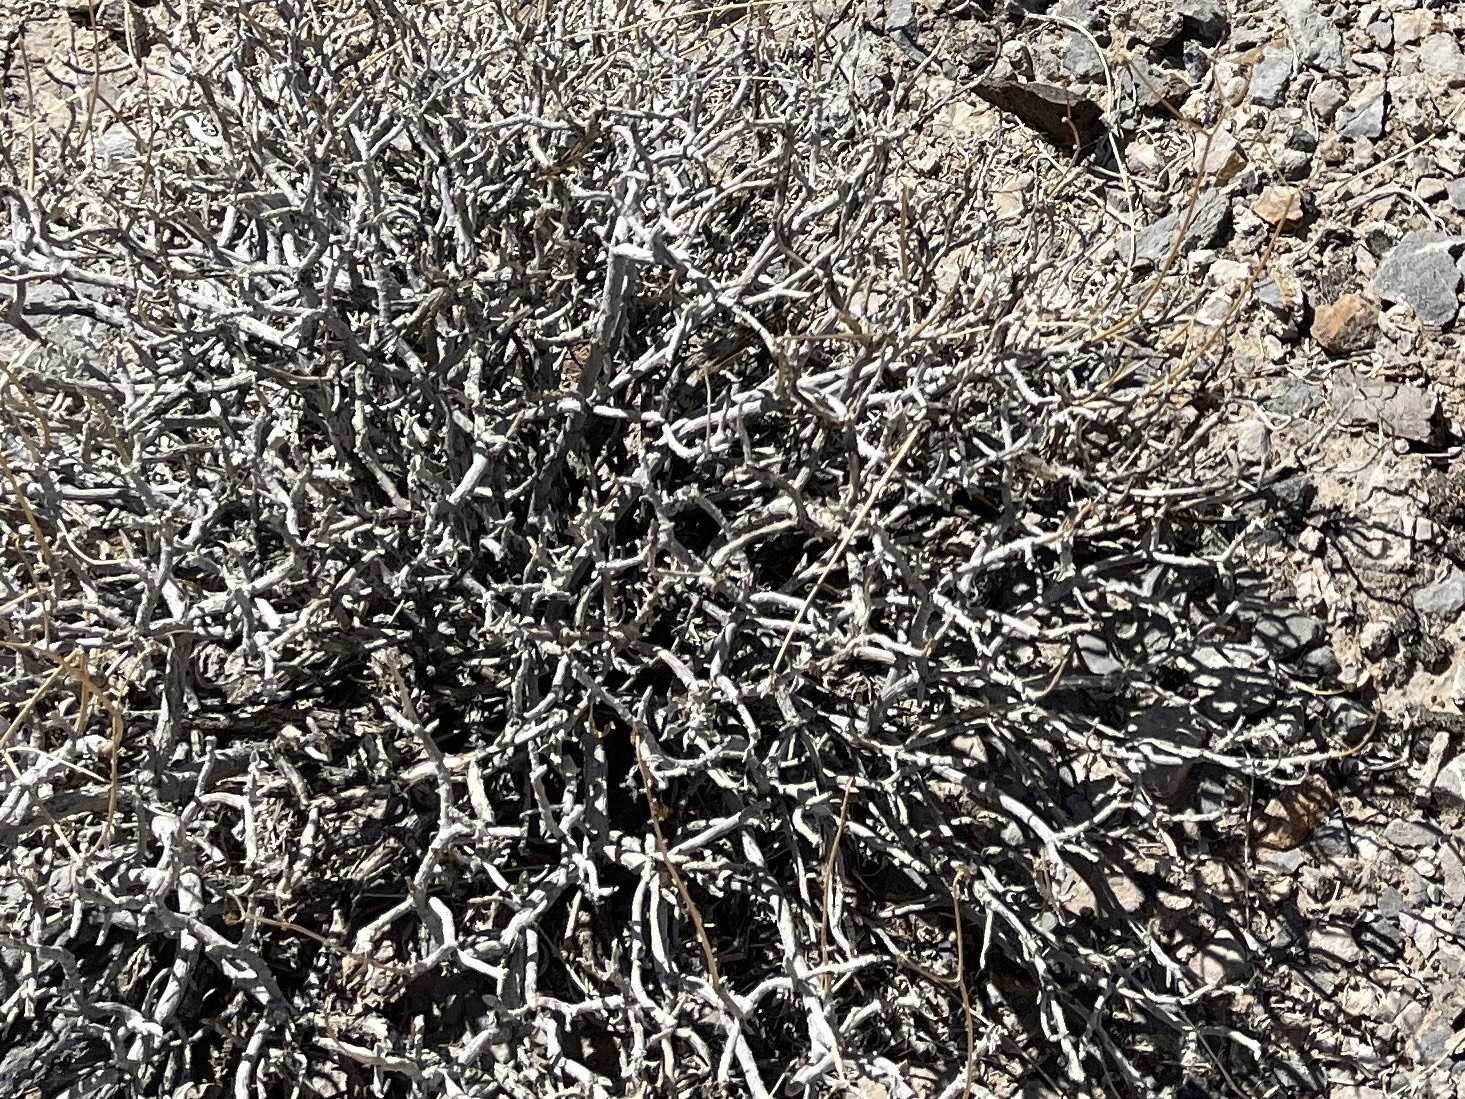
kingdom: Plantae
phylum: Tracheophyta
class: Magnoliopsida
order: Asterales
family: Asteraceae
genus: Encelia
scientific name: Encelia farinosa
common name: Brittlebush
